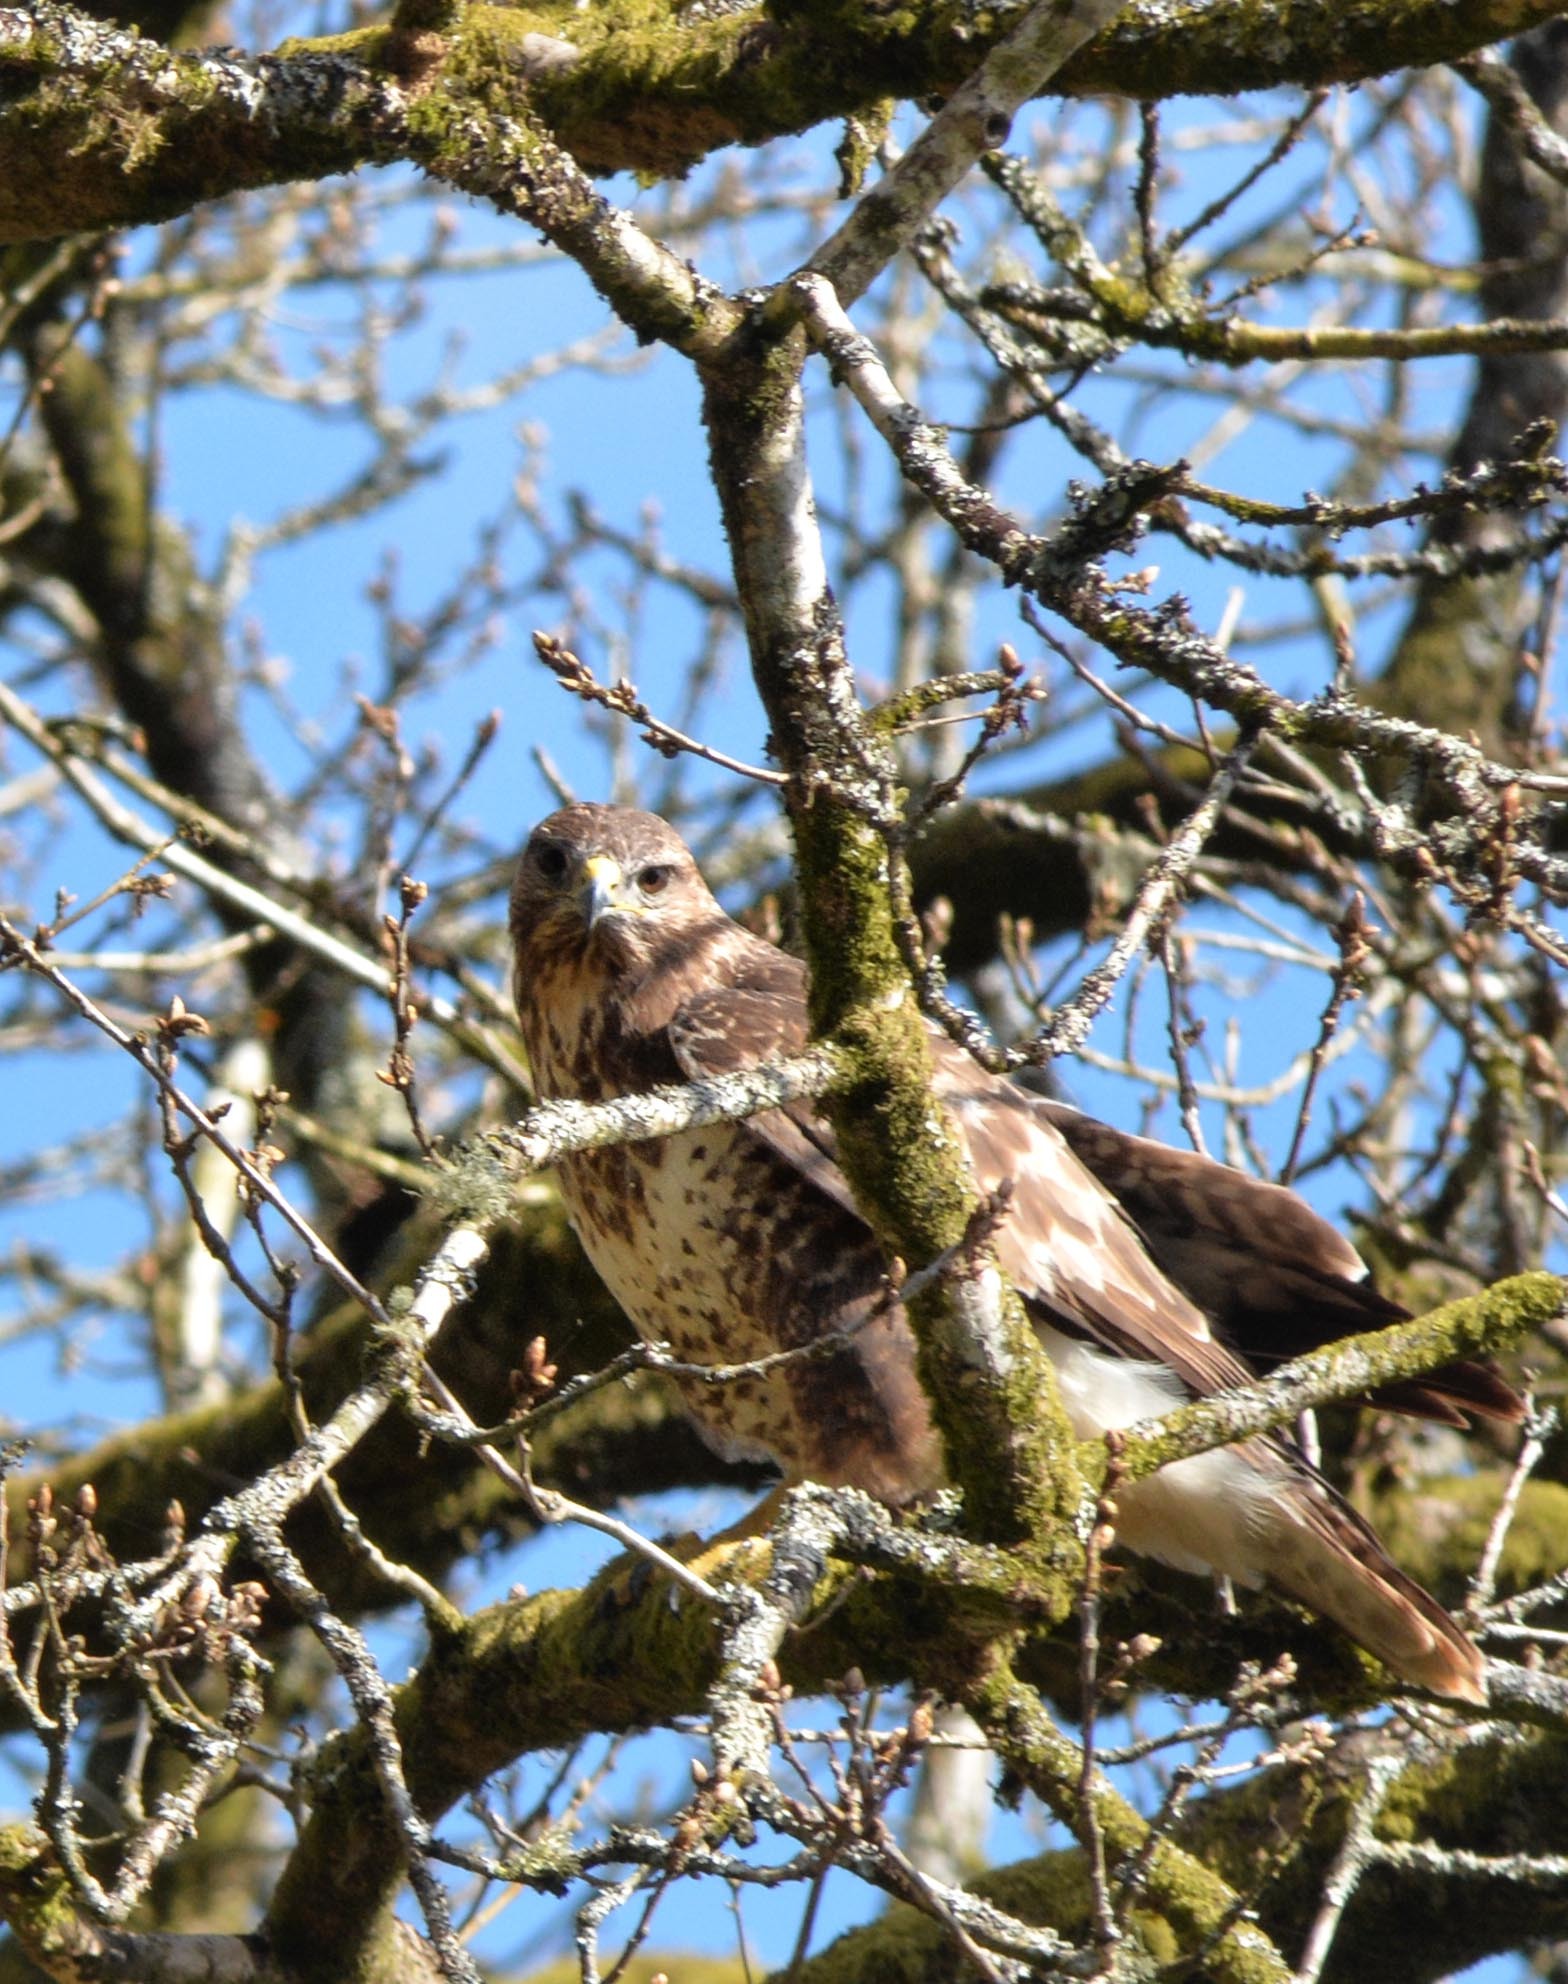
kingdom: Animalia
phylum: Chordata
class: Aves
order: Accipitriformes
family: Accipitridae
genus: Buteo
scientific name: Buteo buteo
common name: Common buzzard
